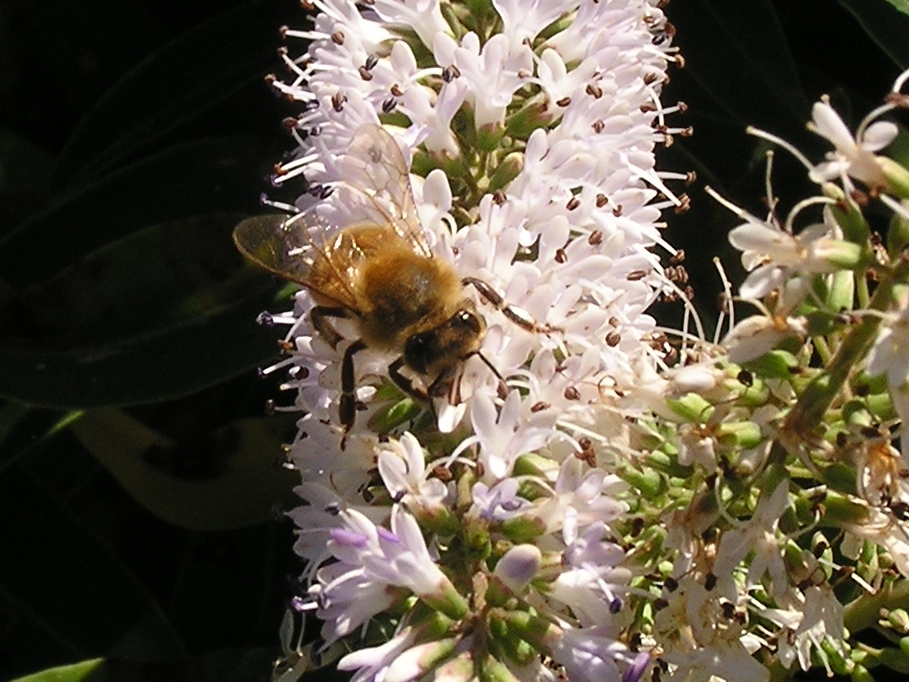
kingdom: Animalia
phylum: Arthropoda
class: Insecta
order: Hymenoptera
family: Apidae
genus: Apis
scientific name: Apis mellifera
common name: Honey bee
